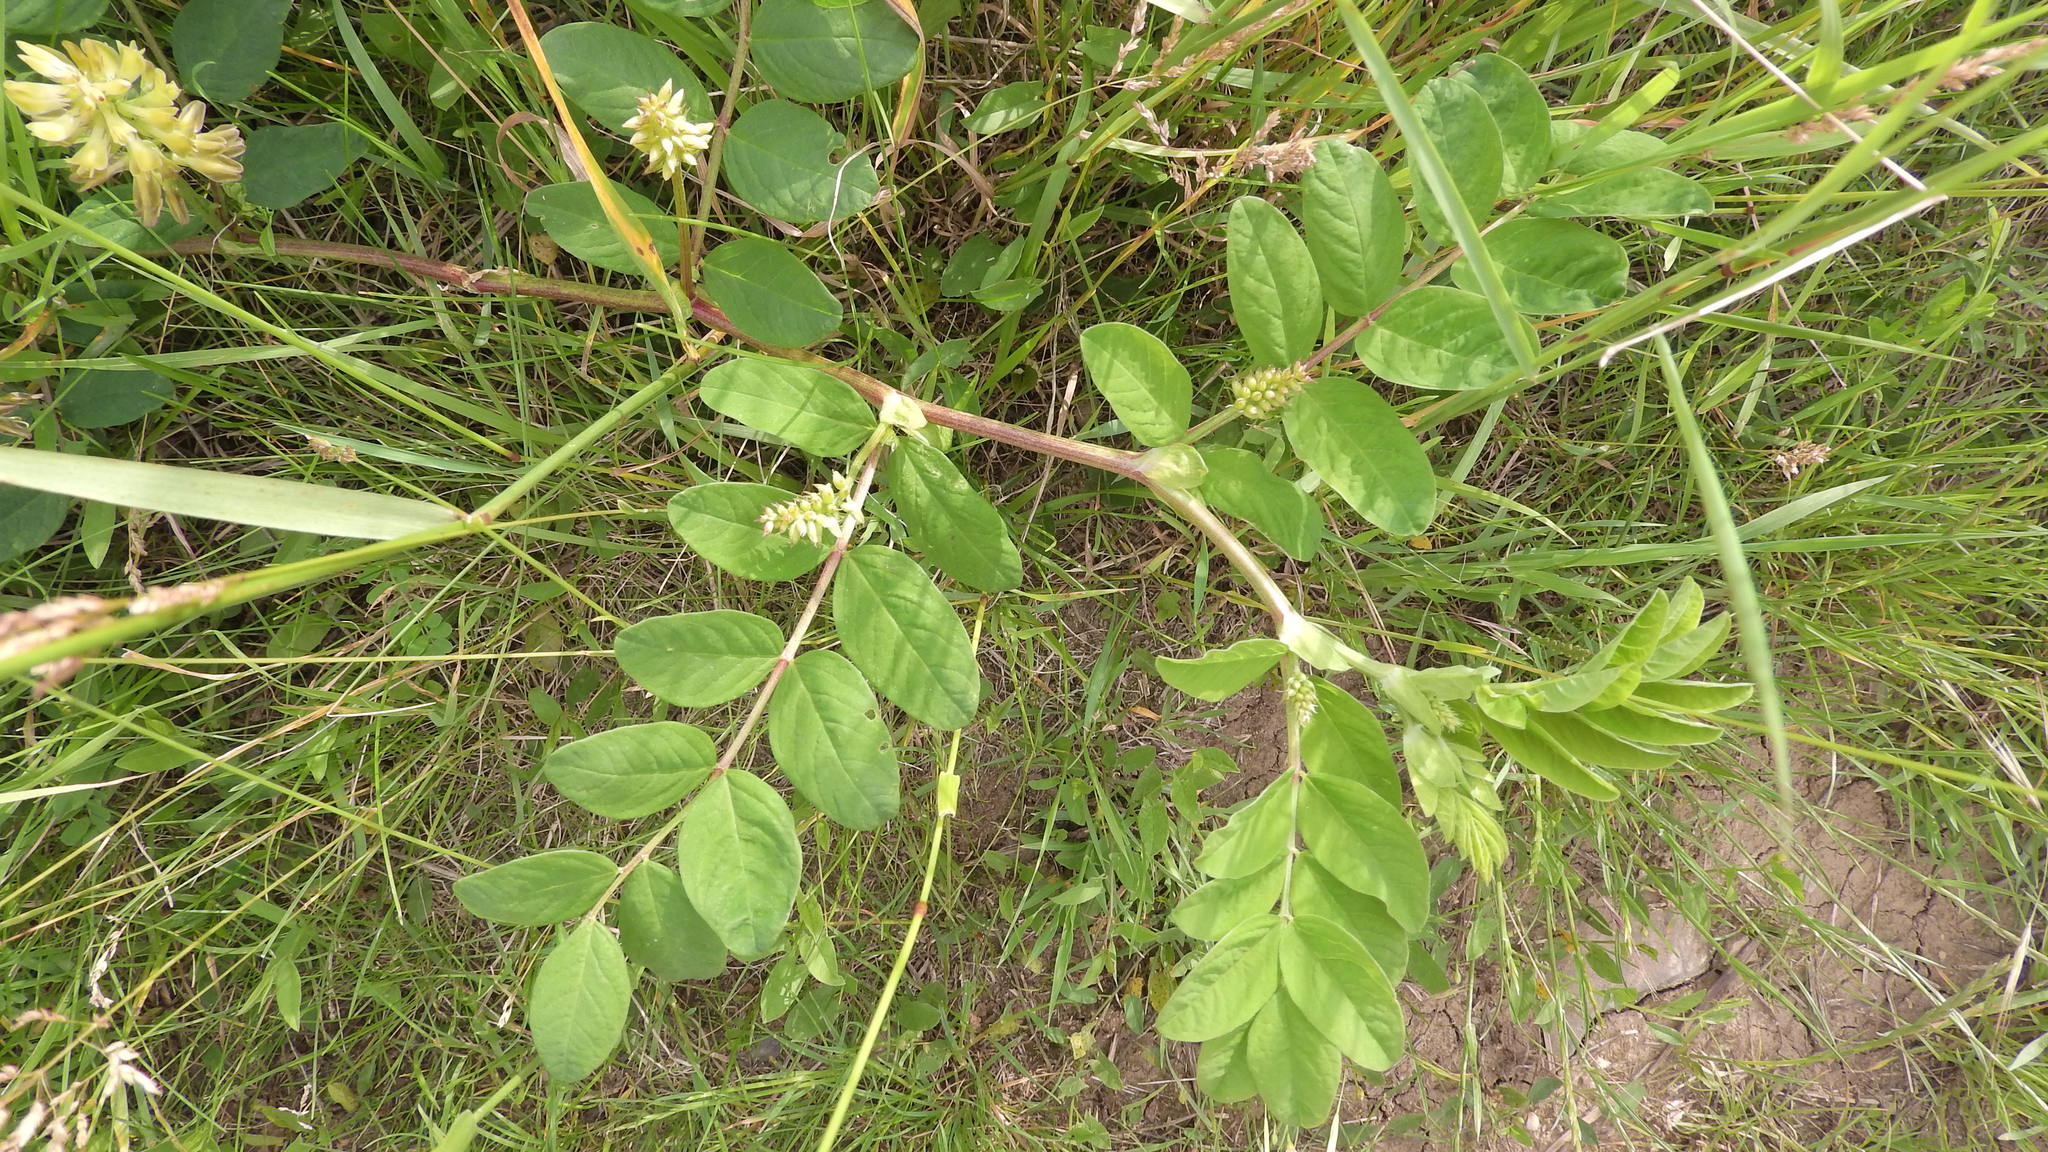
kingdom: Plantae
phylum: Tracheophyta
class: Magnoliopsida
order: Fabales
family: Fabaceae
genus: Astragalus
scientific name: Astragalus glycyphyllos
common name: Wild liquorice
